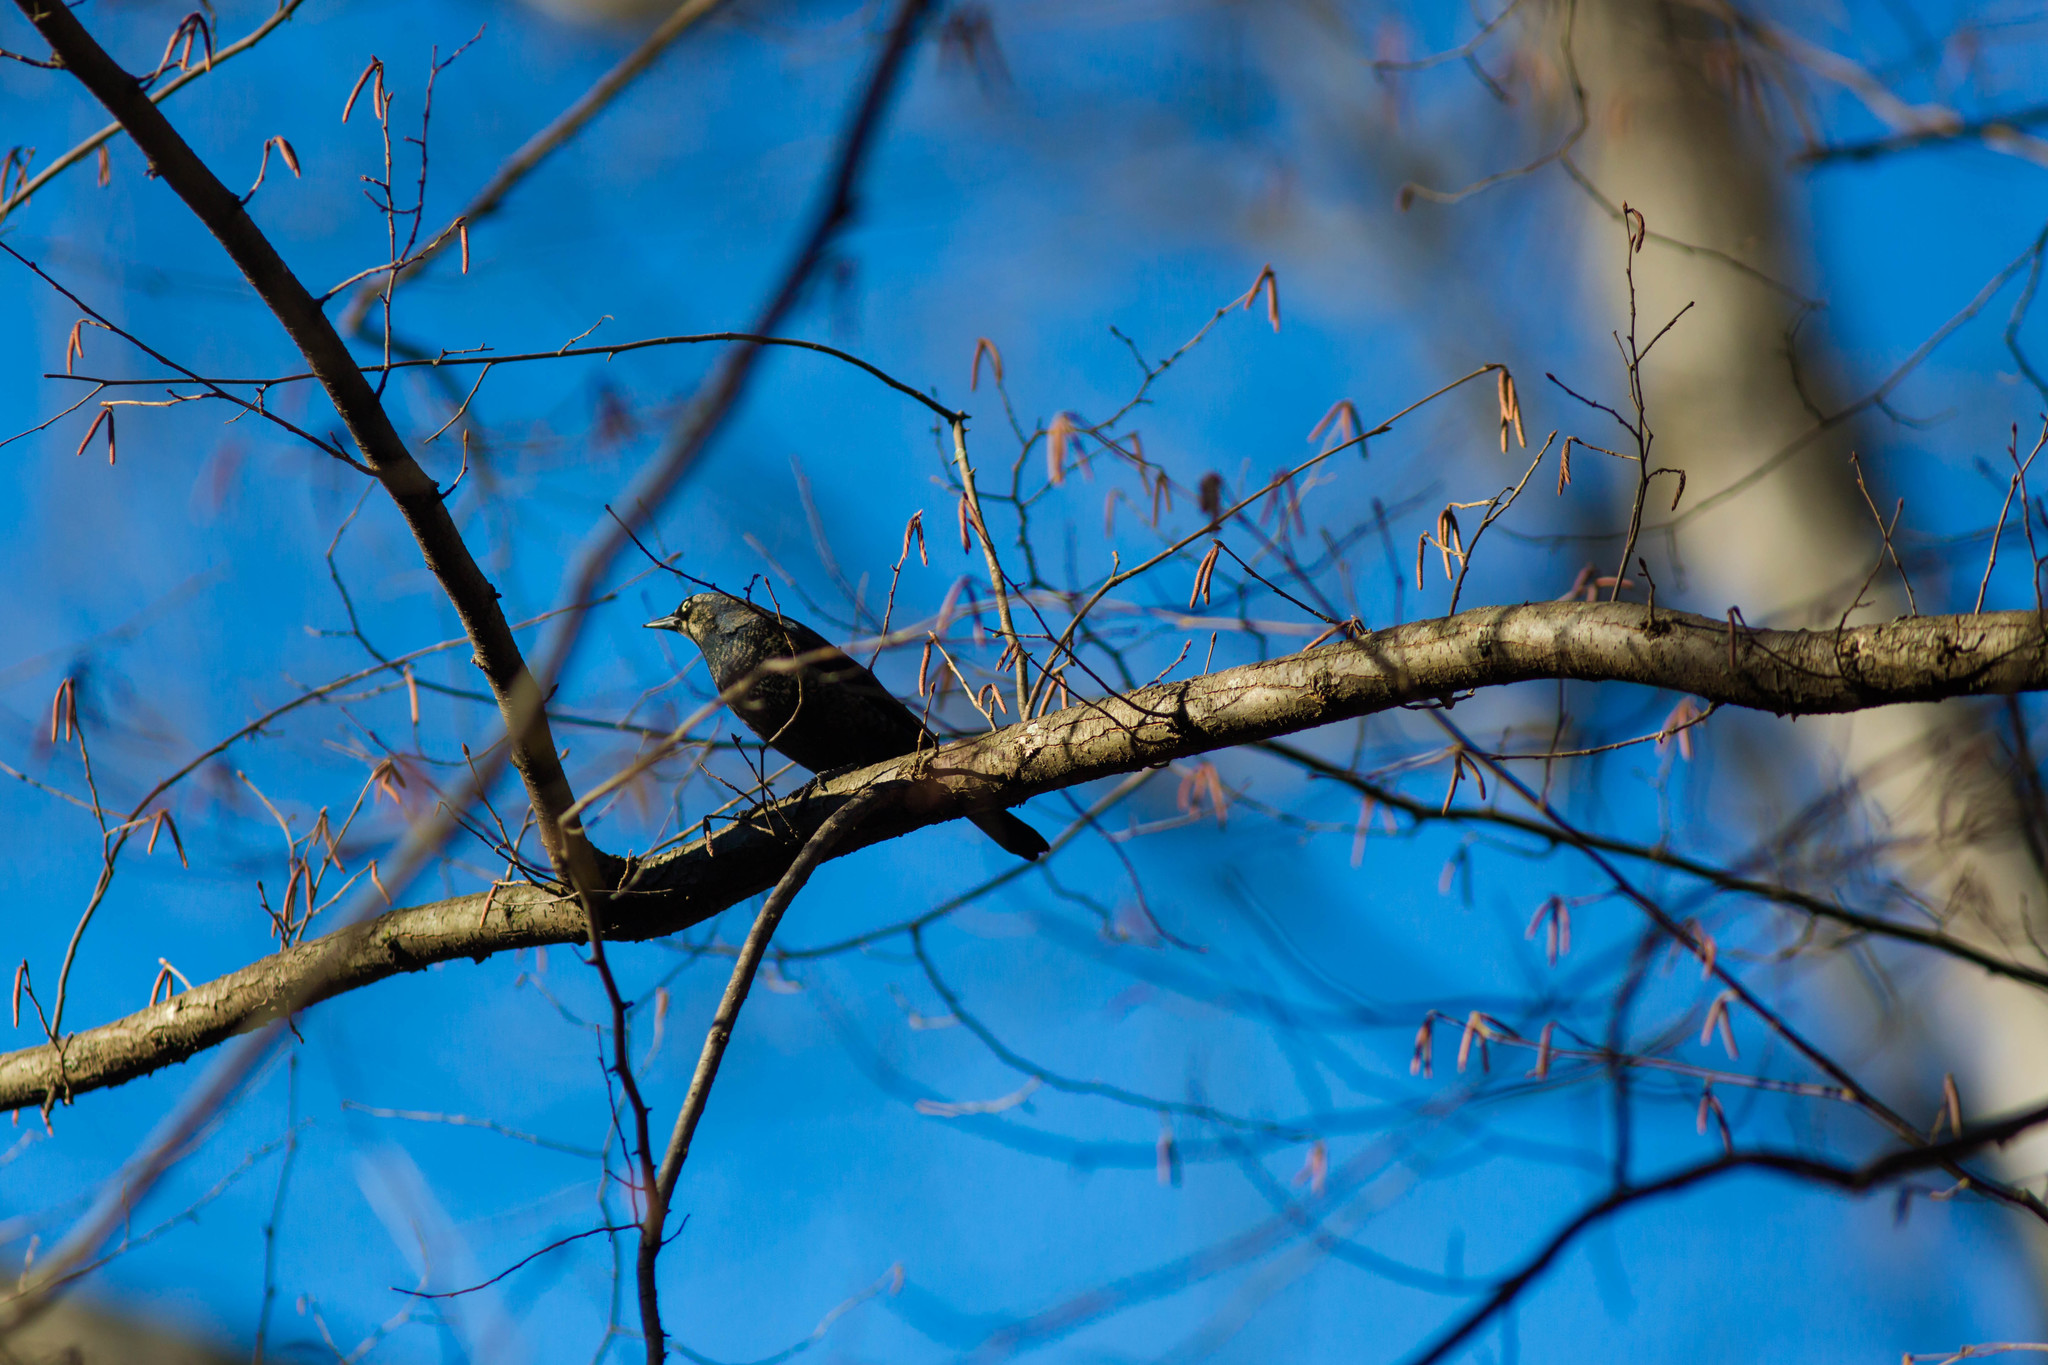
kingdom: Animalia
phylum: Chordata
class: Aves
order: Passeriformes
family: Icteridae
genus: Euphagus
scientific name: Euphagus carolinus
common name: Rusty blackbird
